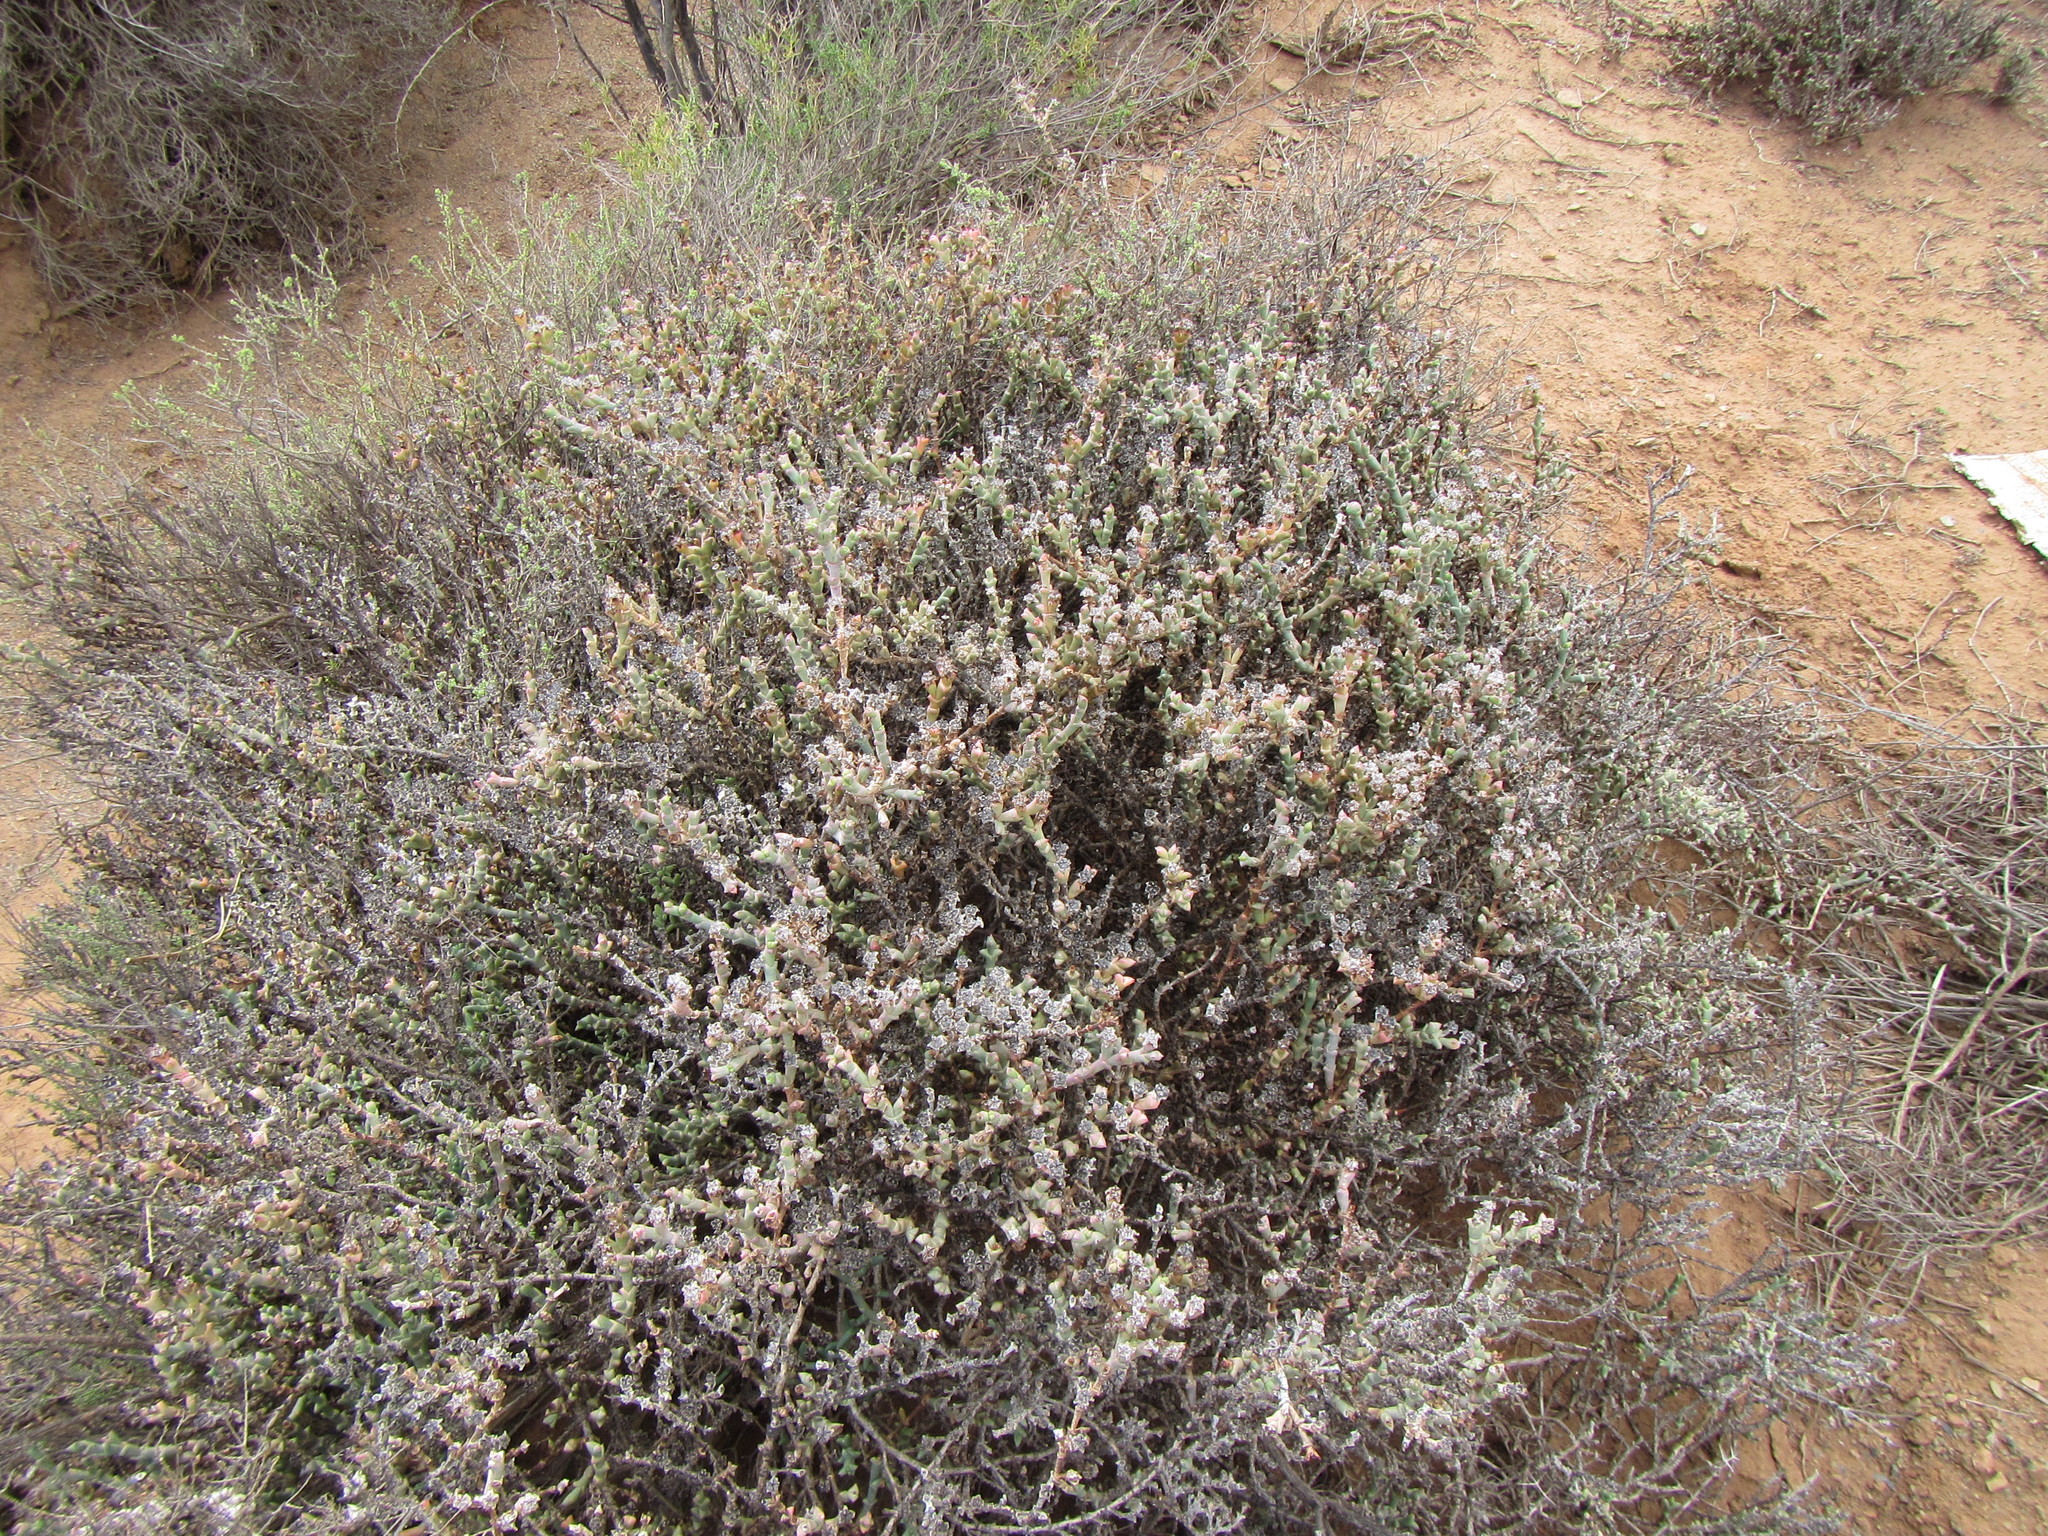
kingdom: Plantae
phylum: Tracheophyta
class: Magnoliopsida
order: Caryophyllales
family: Aizoaceae
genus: Ruschia
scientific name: Ruschia grisea
